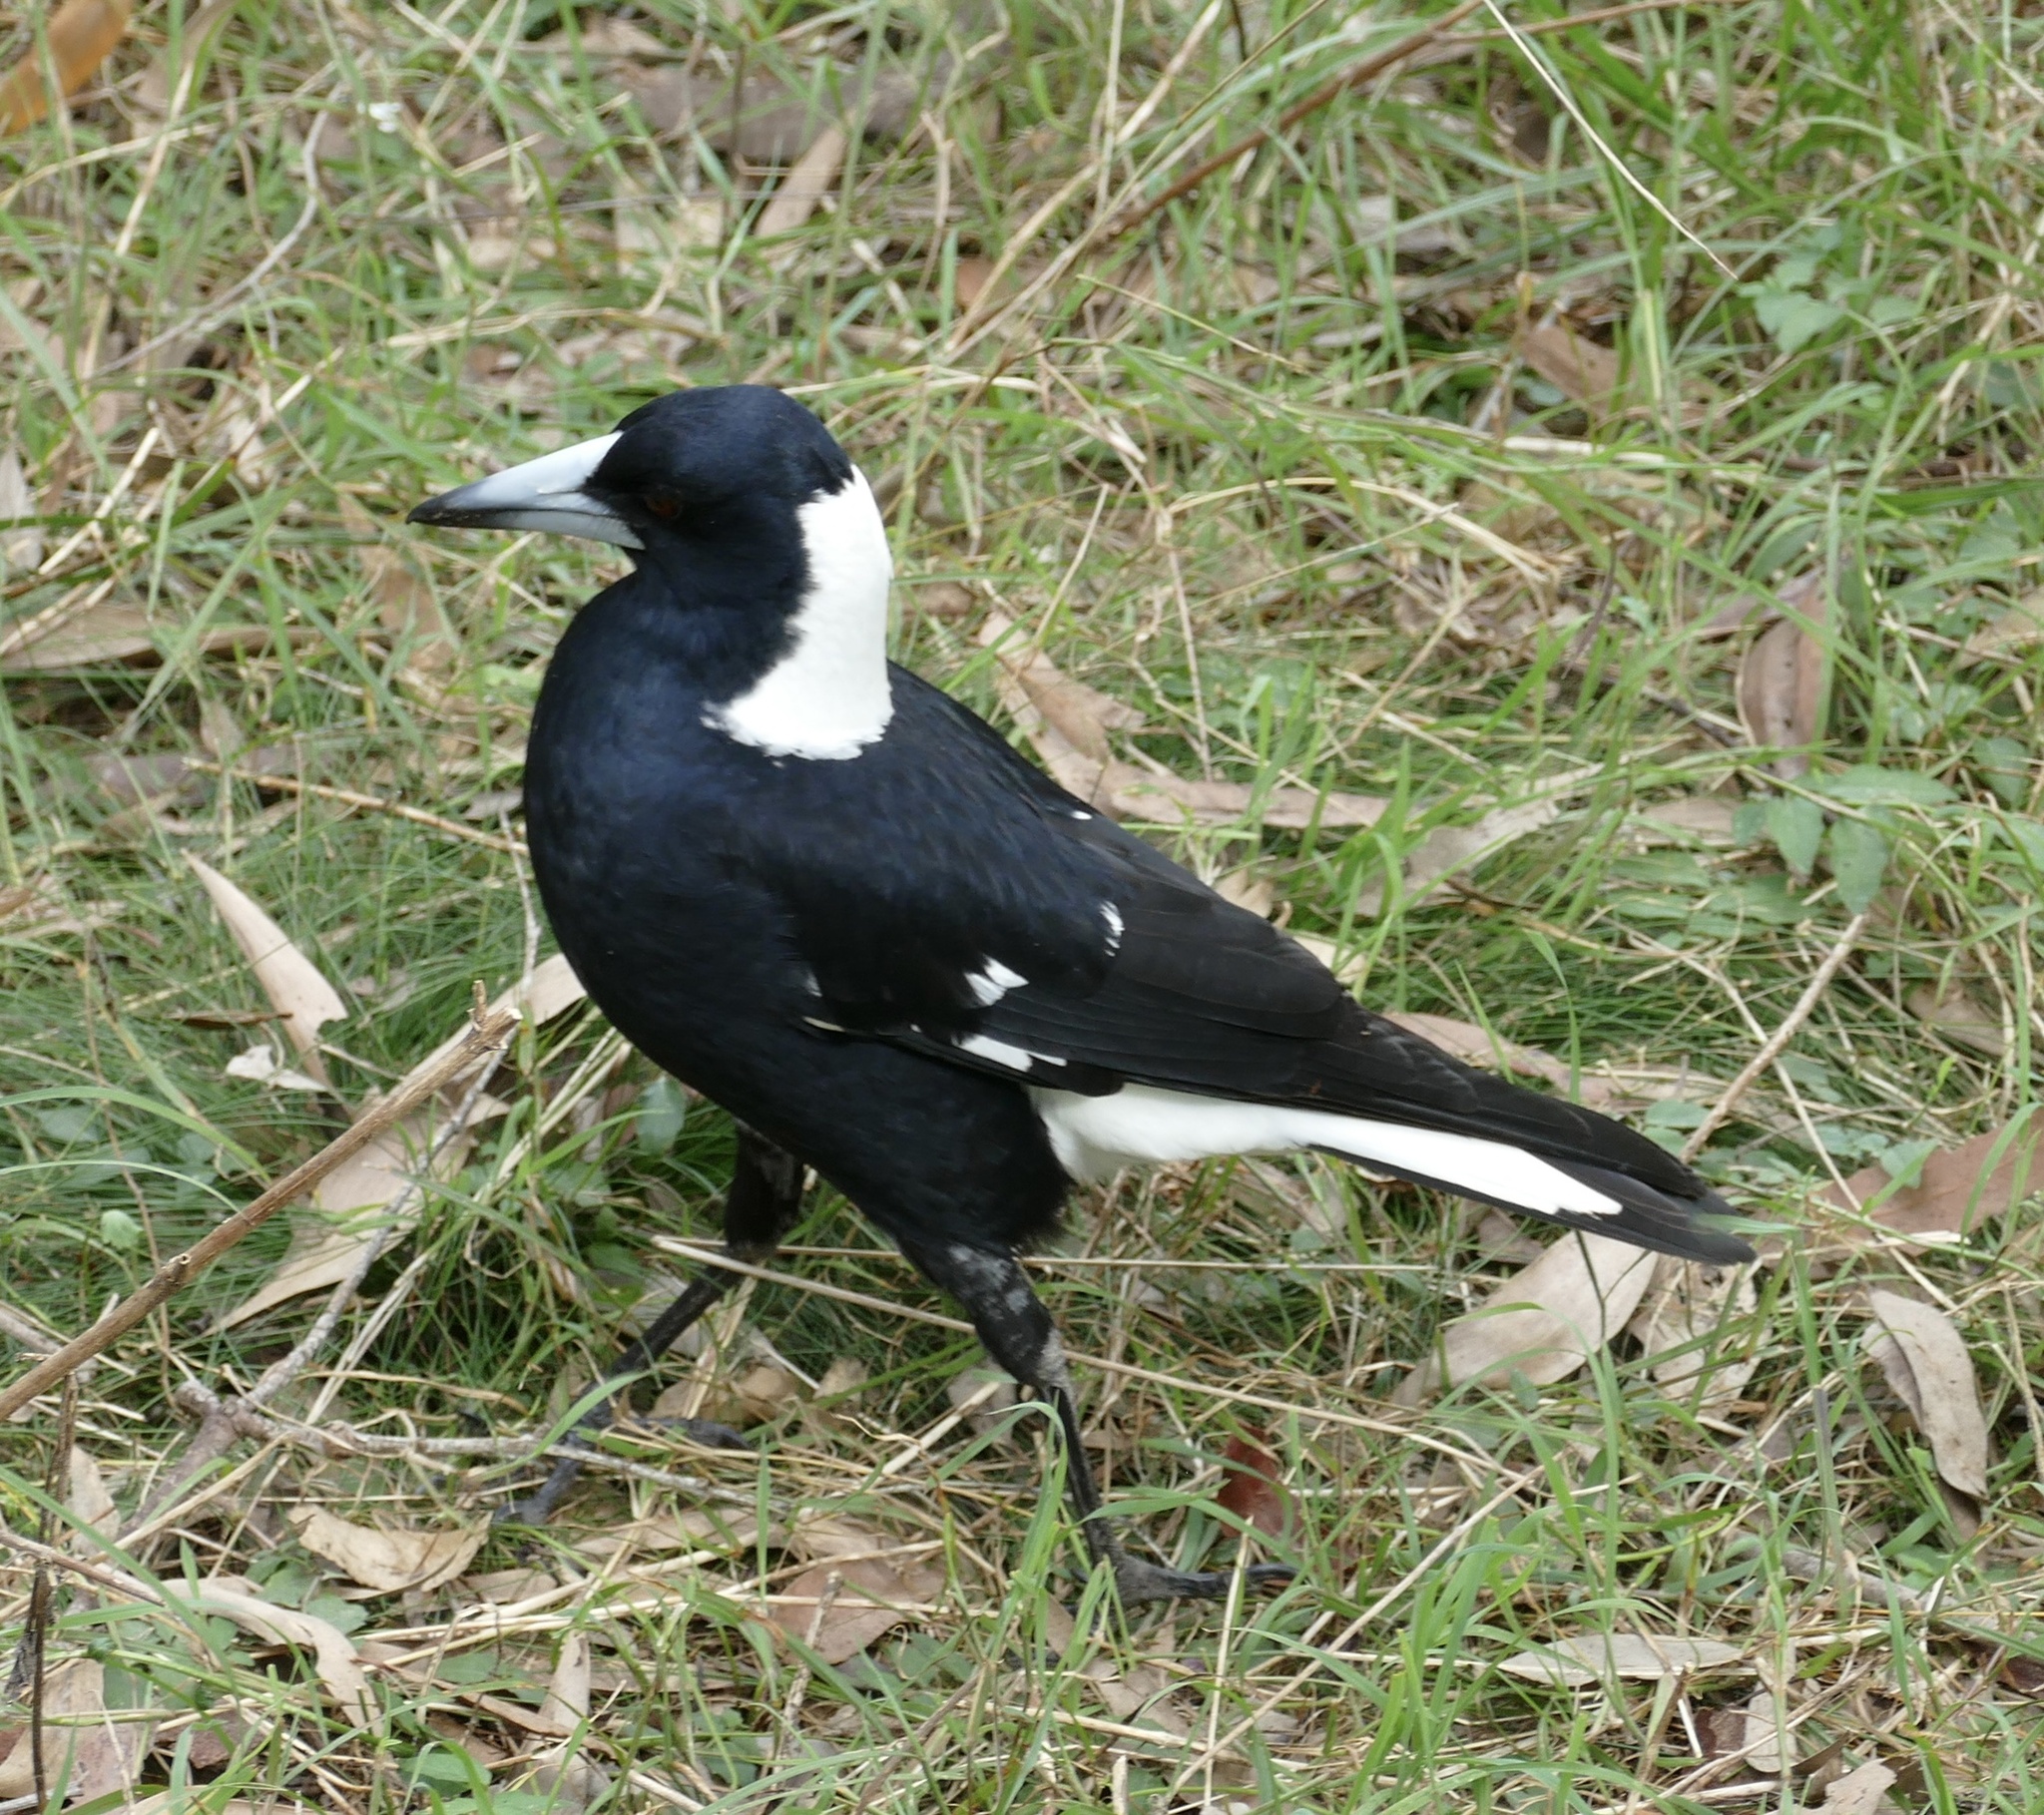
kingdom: Animalia
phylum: Chordata
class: Aves
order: Passeriformes
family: Cracticidae
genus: Gymnorhina
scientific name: Gymnorhina tibicen
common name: Australian magpie
